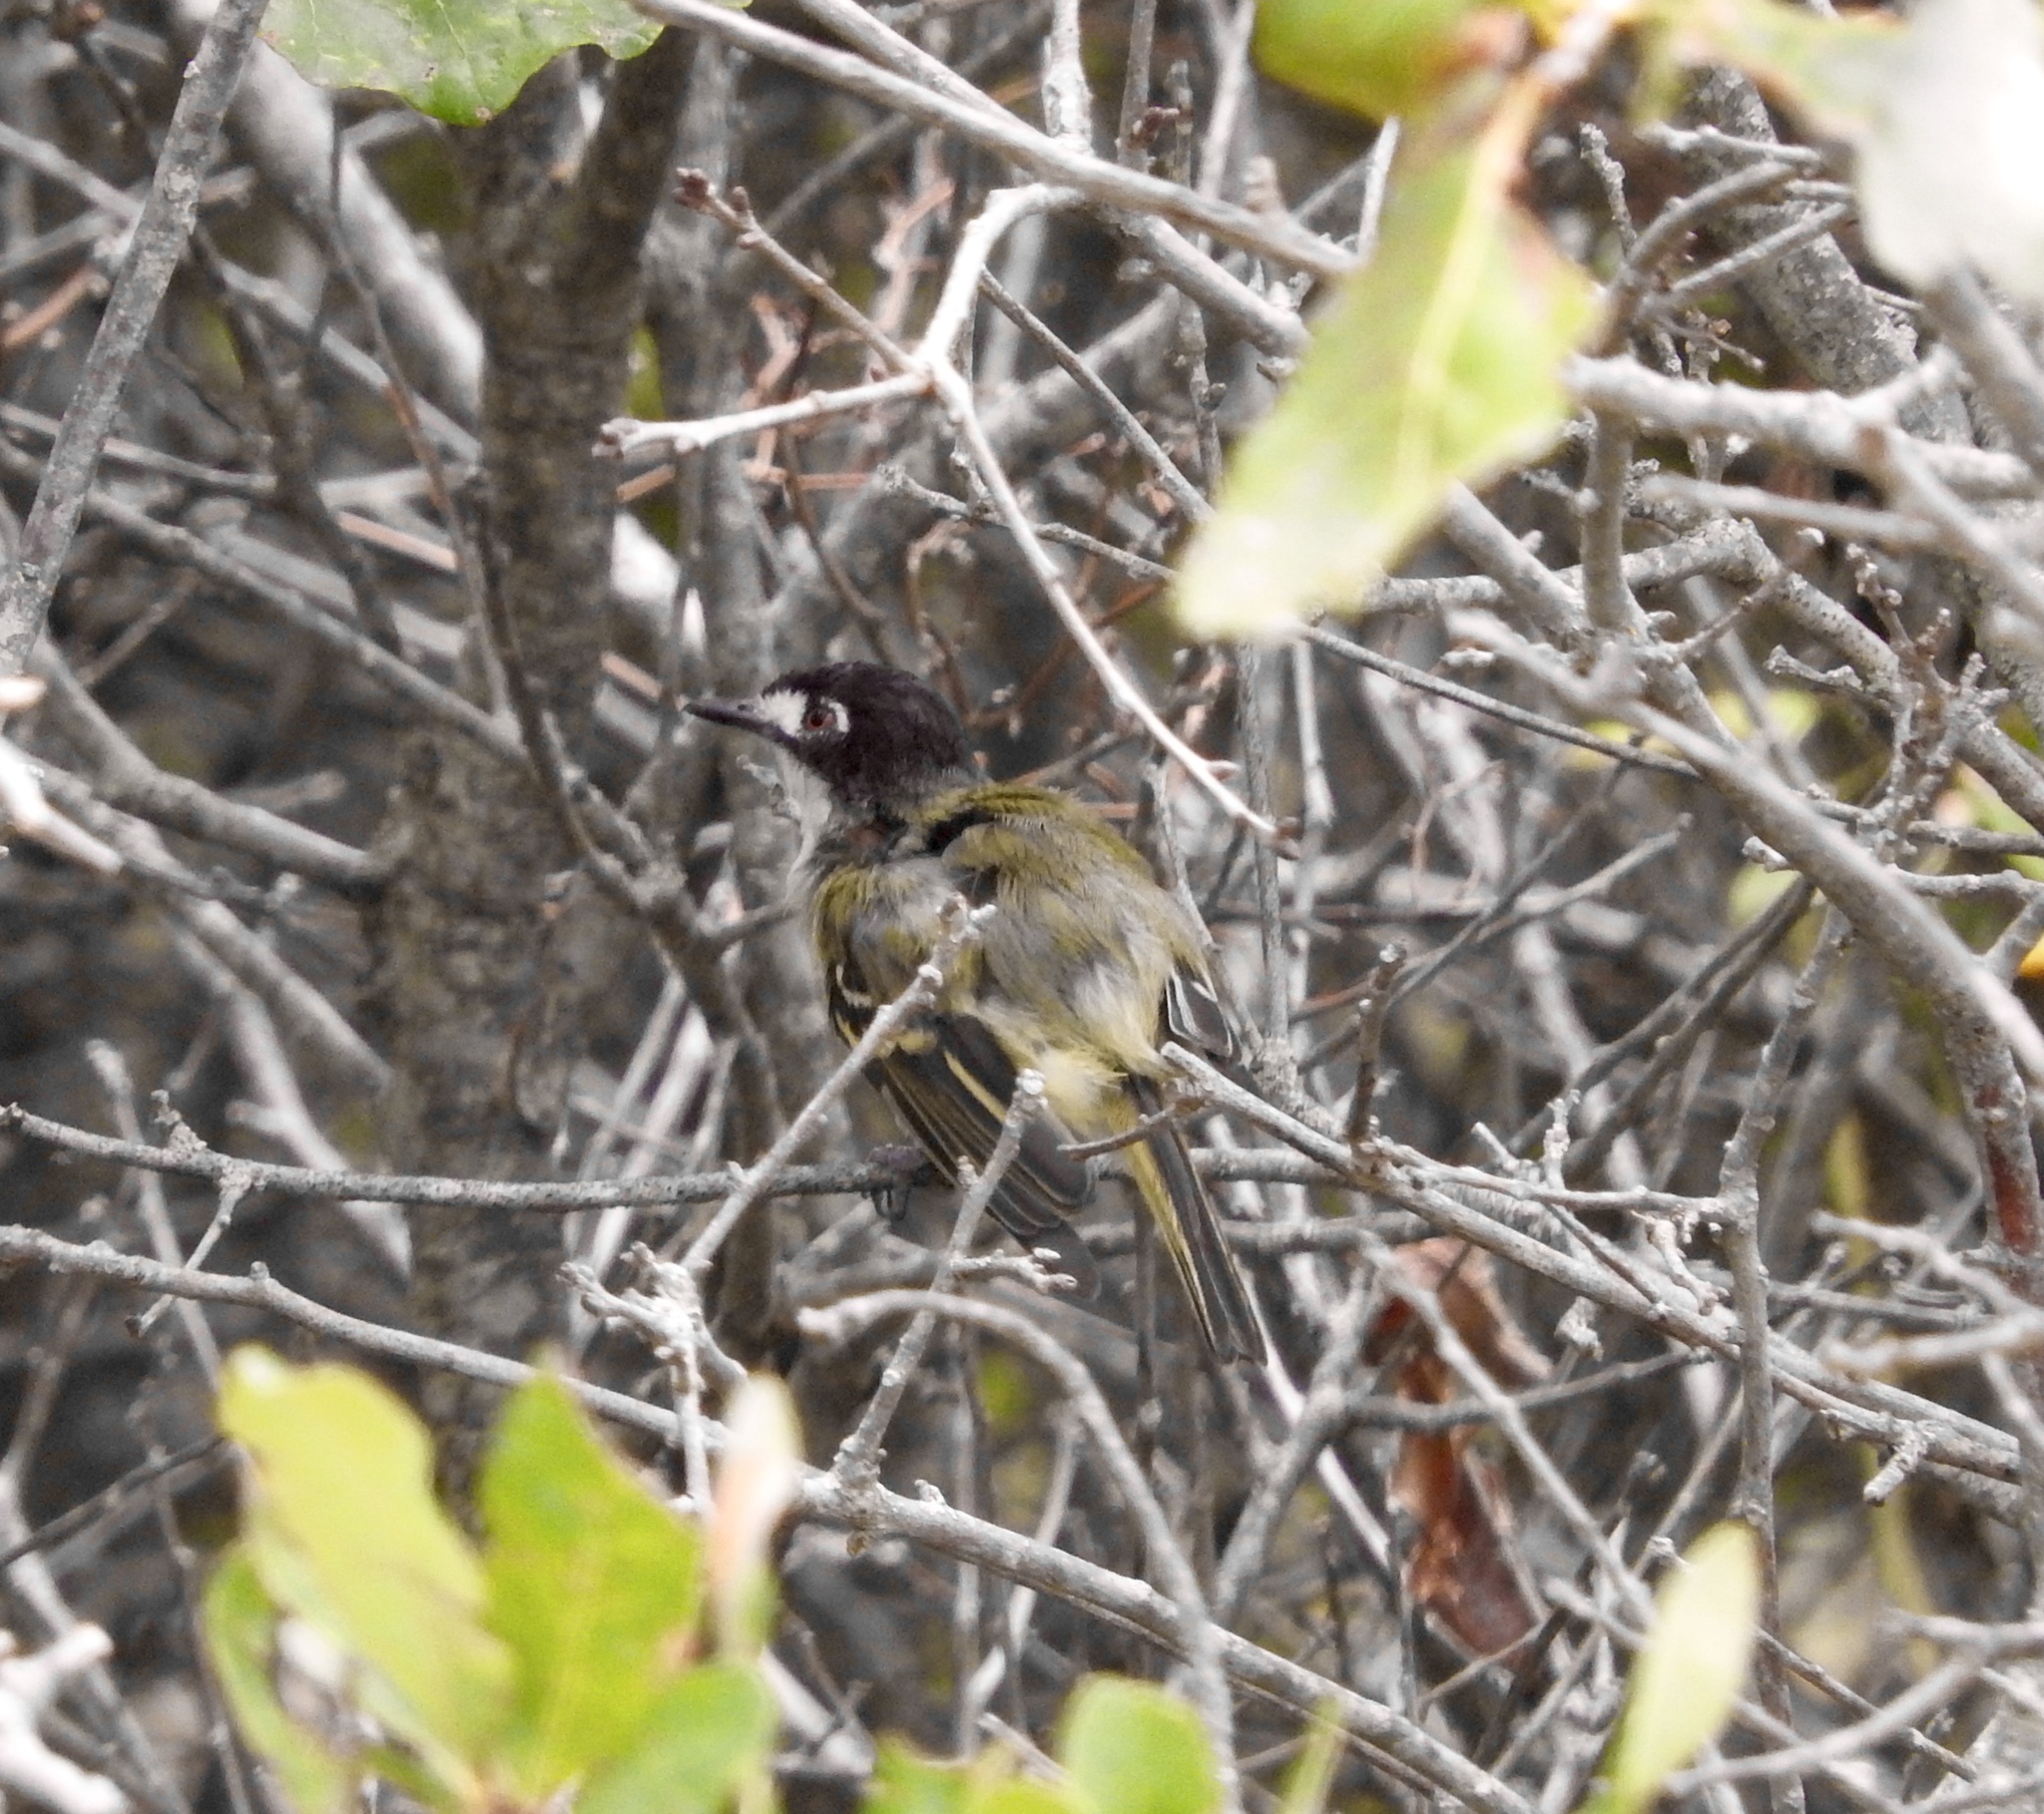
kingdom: Animalia
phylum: Chordata
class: Aves
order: Passeriformes
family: Vireonidae
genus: Vireo
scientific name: Vireo atricapilla
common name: Black-capped vireo
